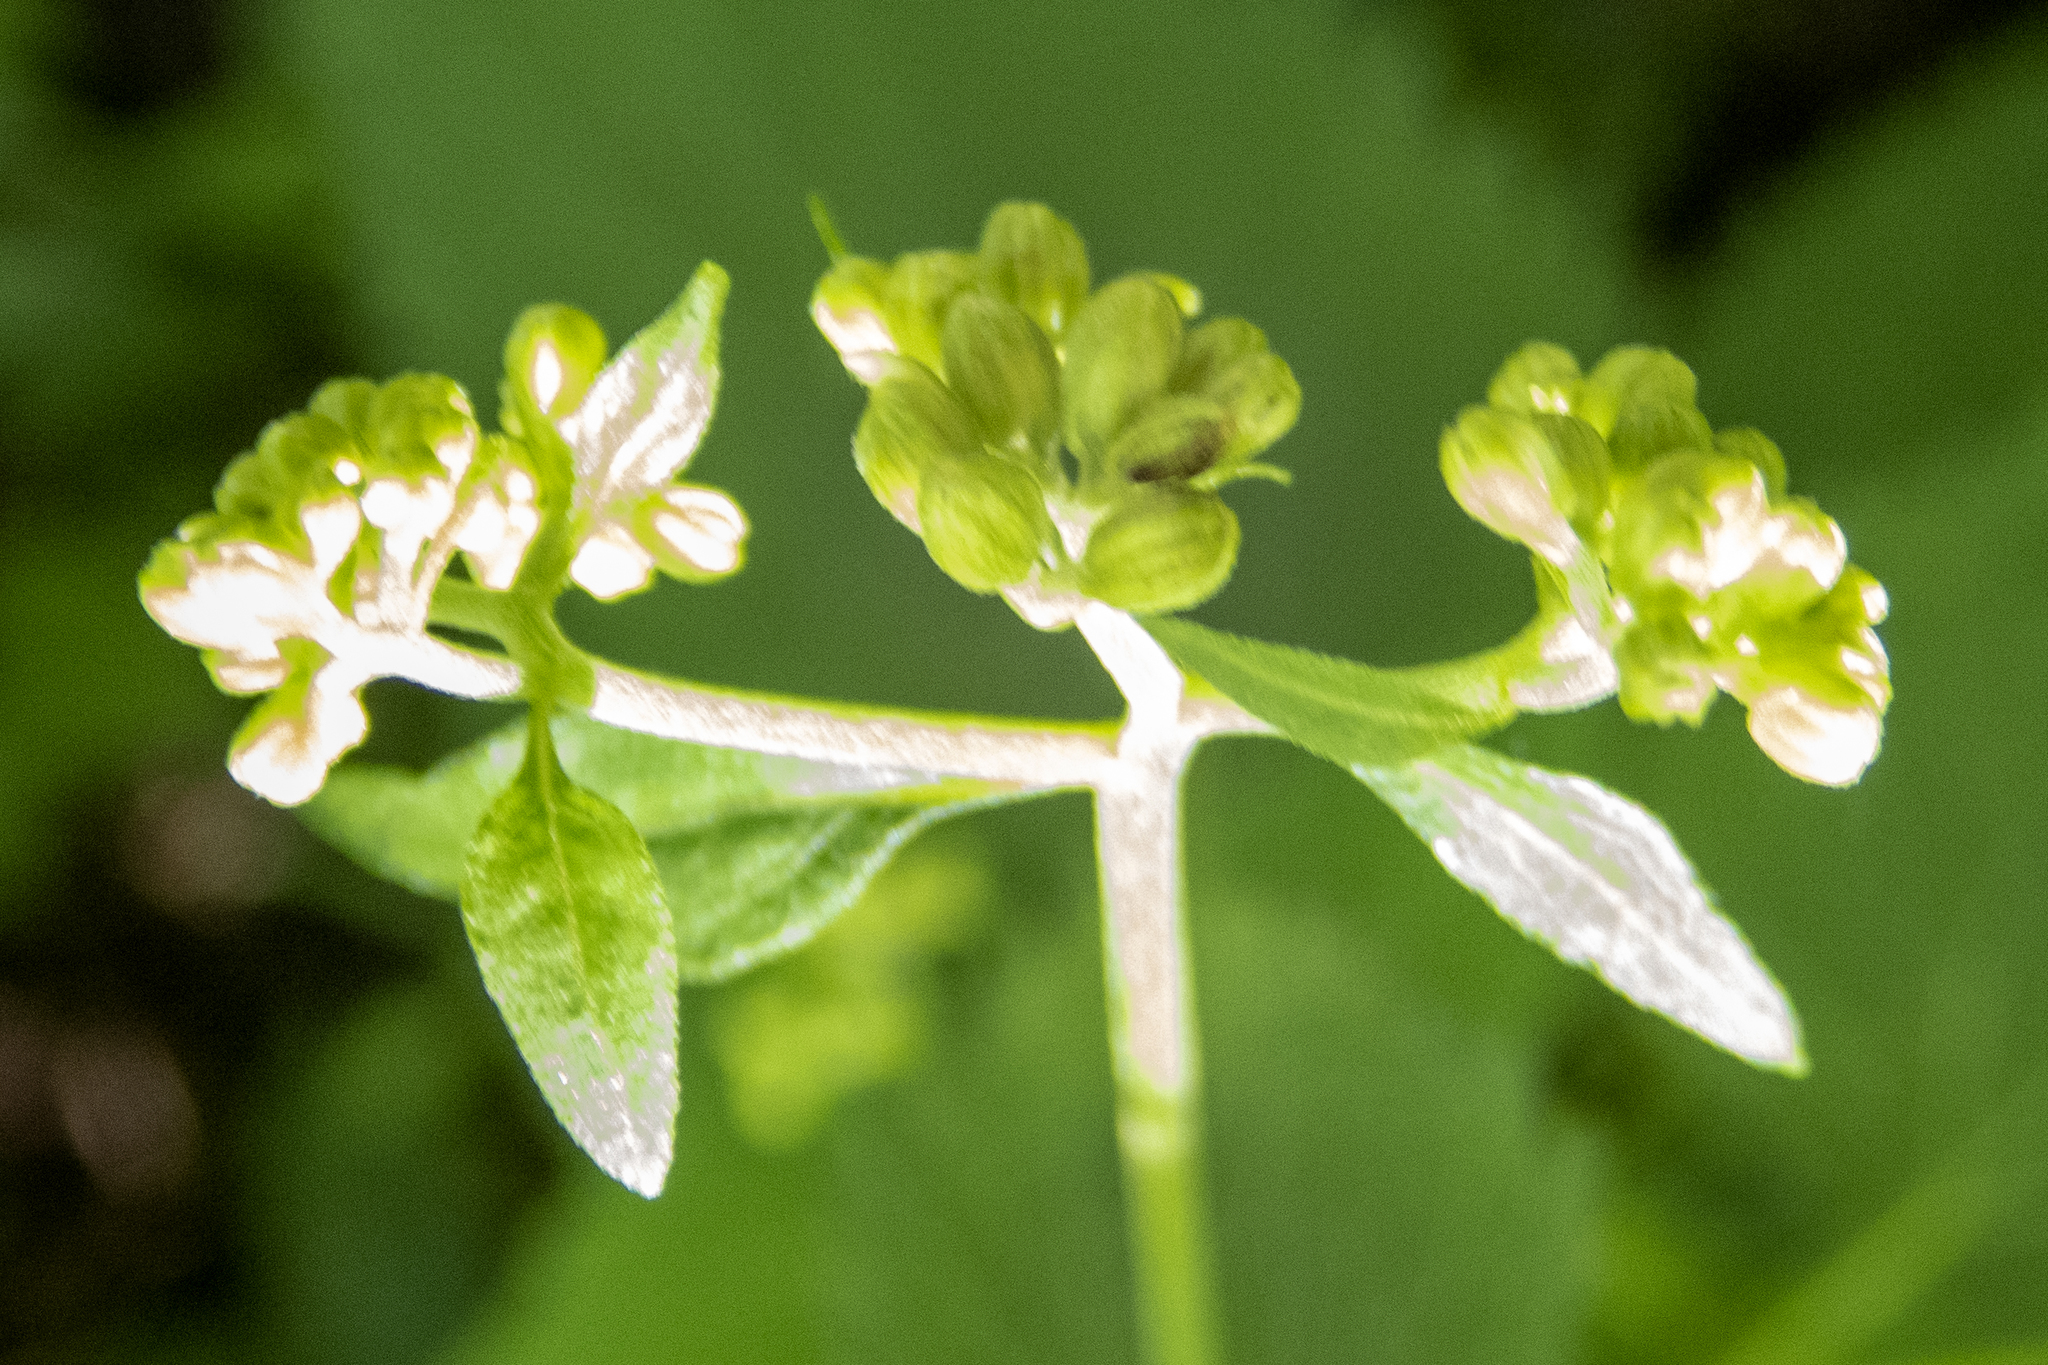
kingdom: Plantae
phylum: Tracheophyta
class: Magnoliopsida
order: Asterales
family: Asteraceae
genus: Ageratina
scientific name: Ageratina altissima
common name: White snakeroot
